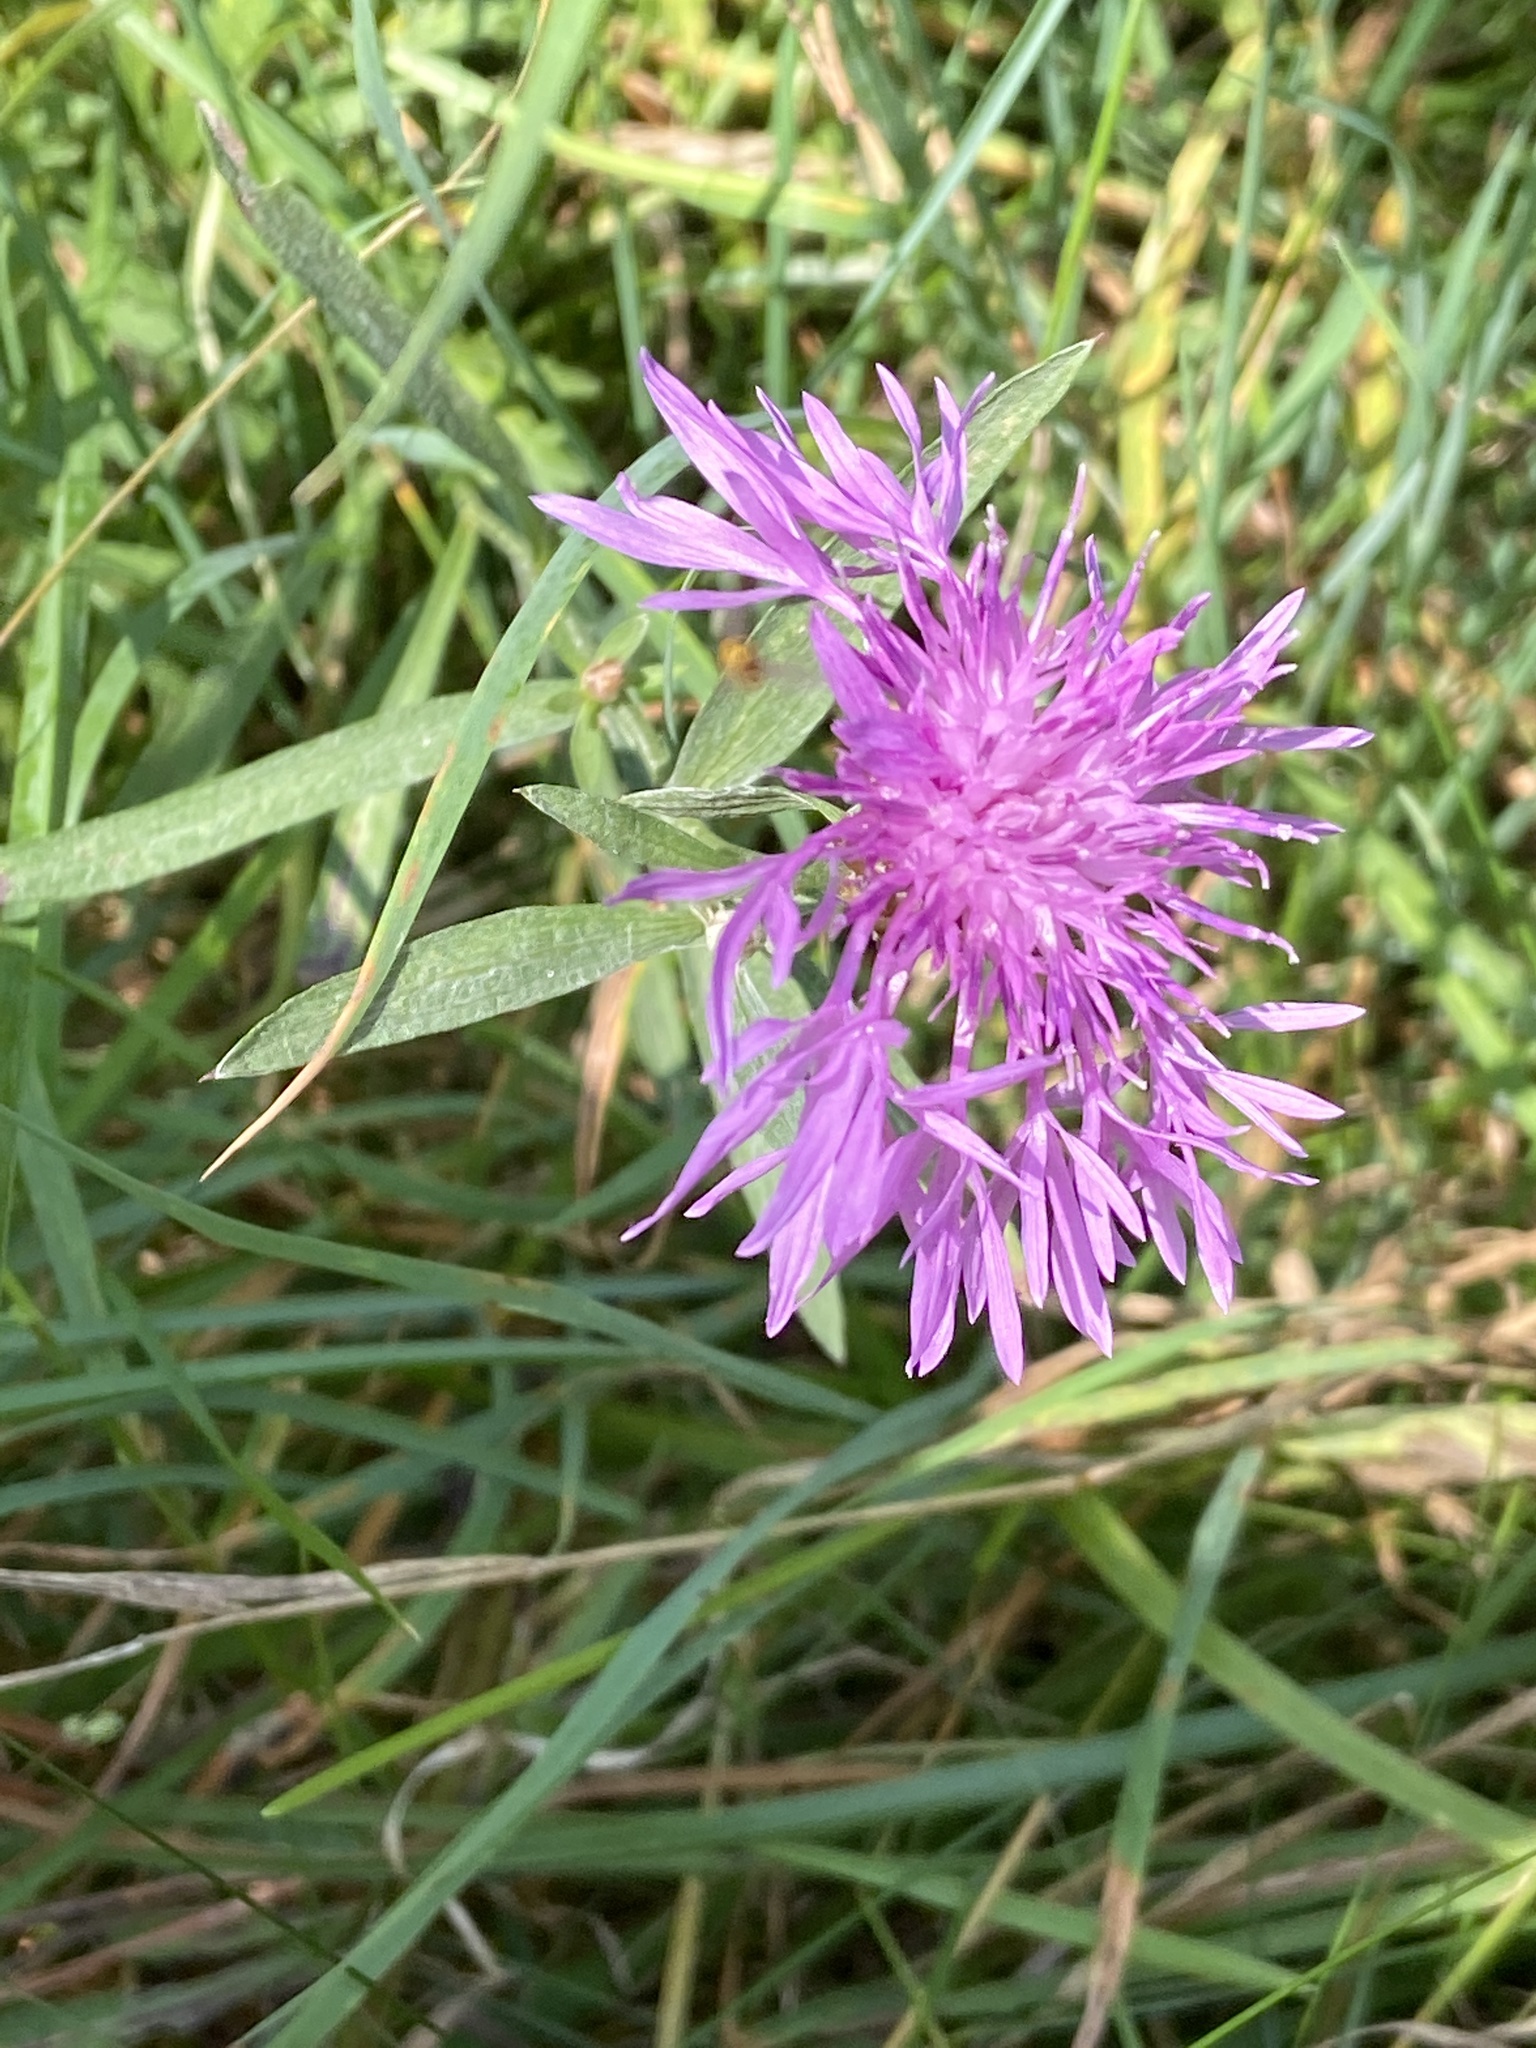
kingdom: Plantae
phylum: Tracheophyta
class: Magnoliopsida
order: Asterales
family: Asteraceae
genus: Centaurea
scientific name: Centaurea jacea
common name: Brown knapweed
